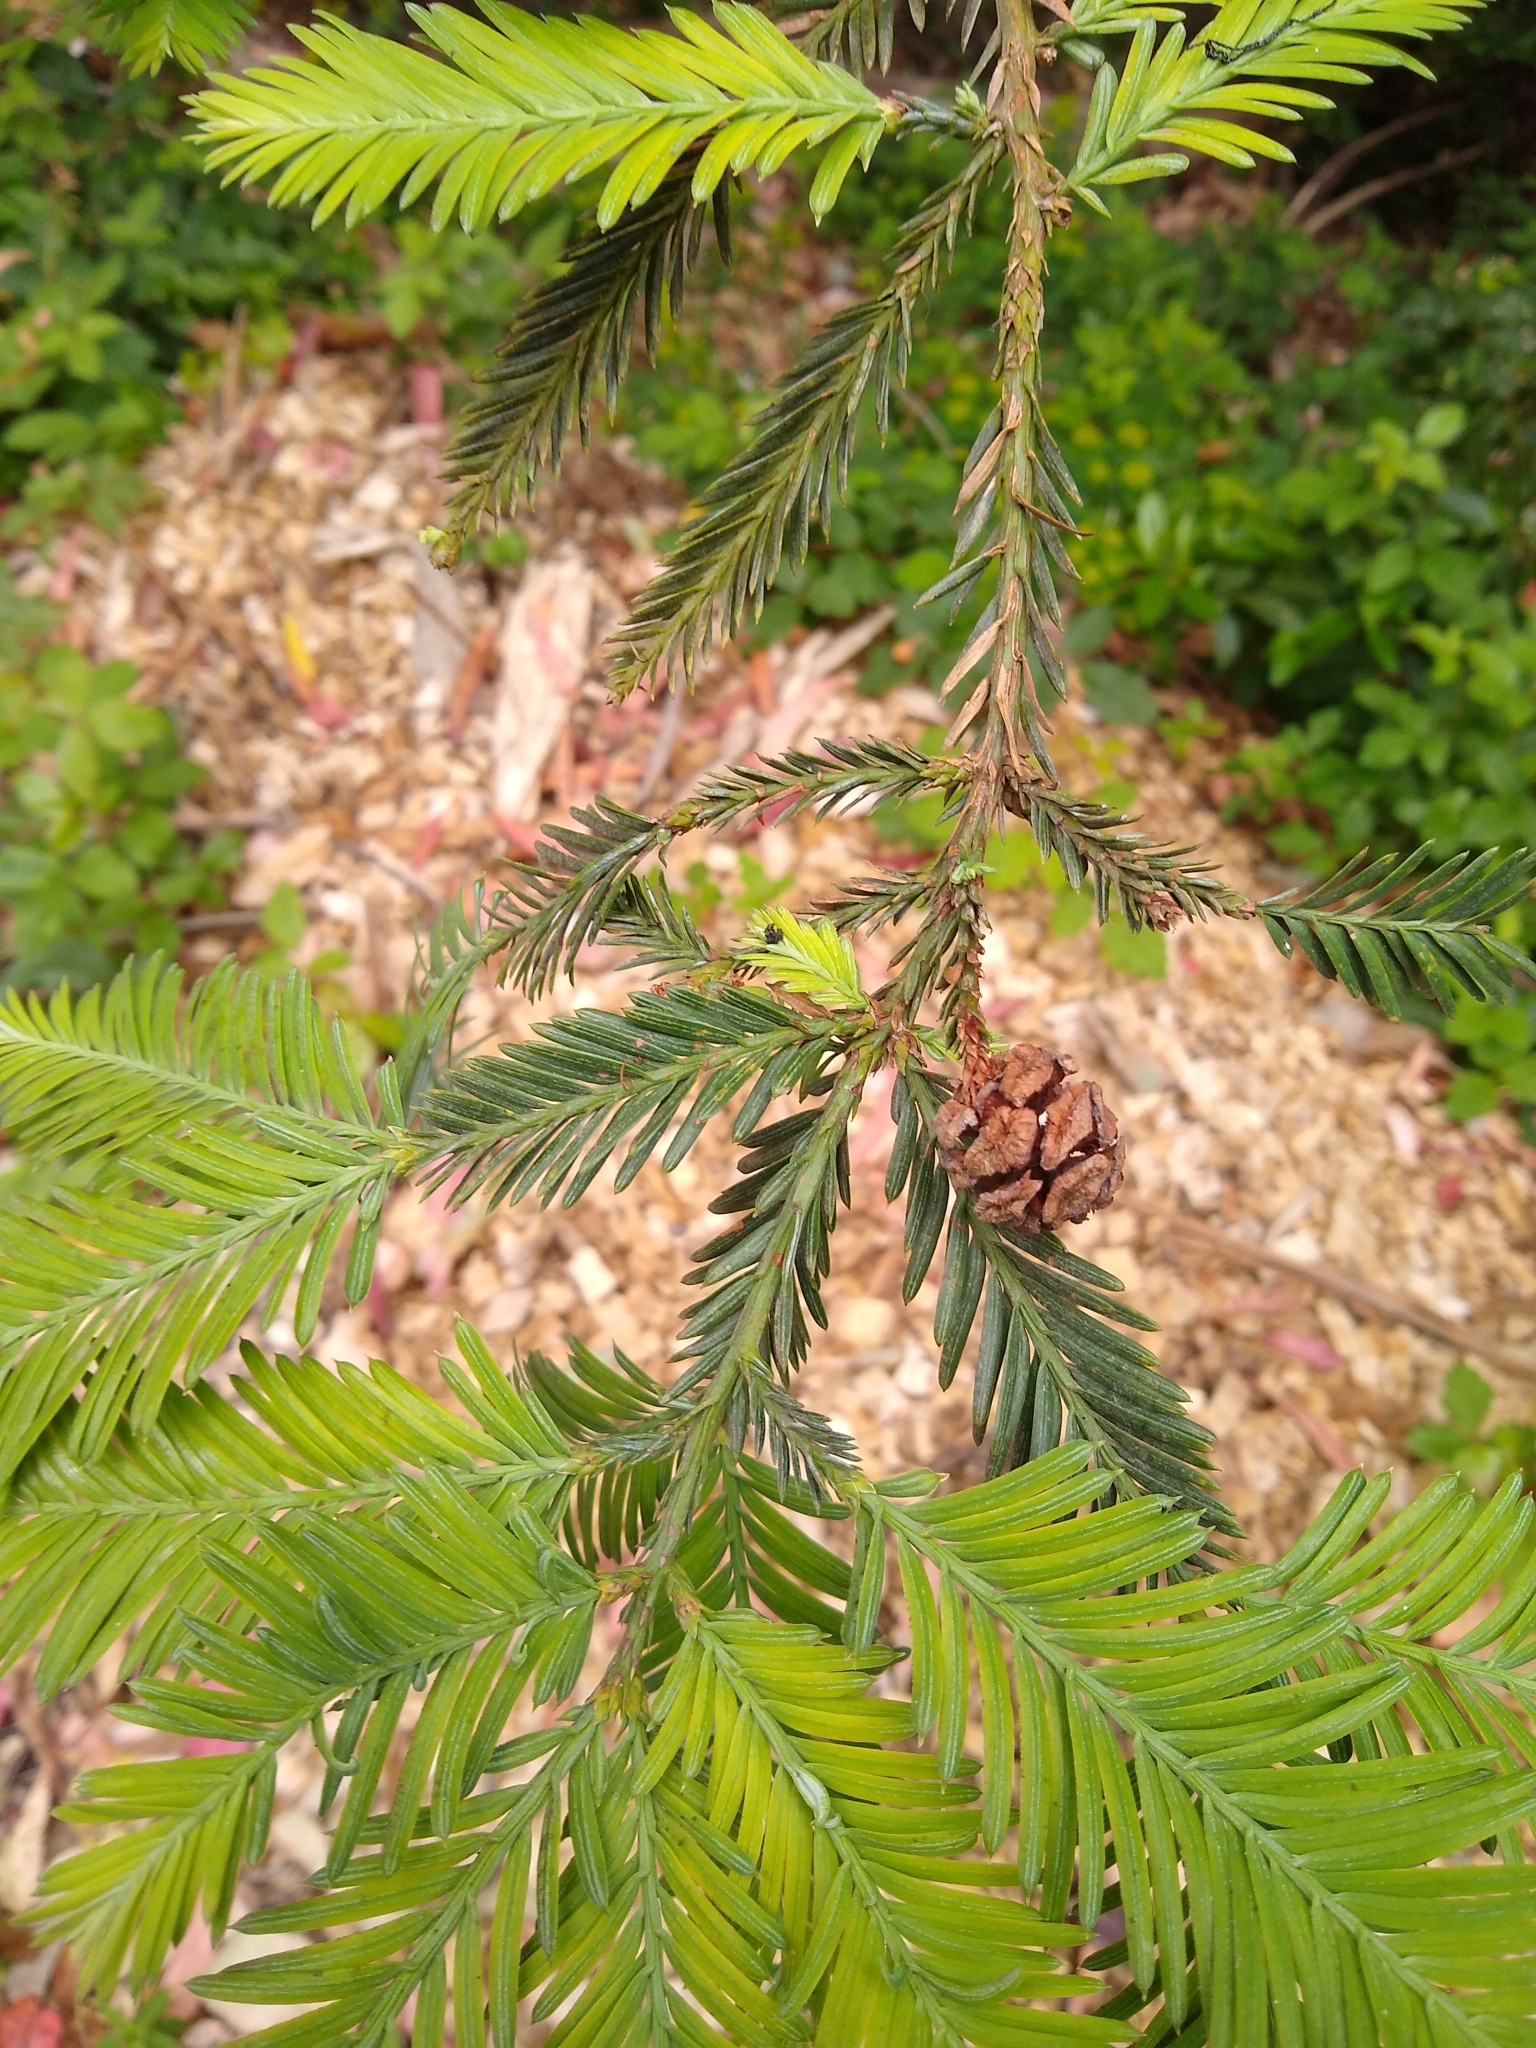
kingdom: Plantae
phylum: Tracheophyta
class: Pinopsida
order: Pinales
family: Cupressaceae
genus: Sequoia
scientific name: Sequoia sempervirens
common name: Coast redwood
